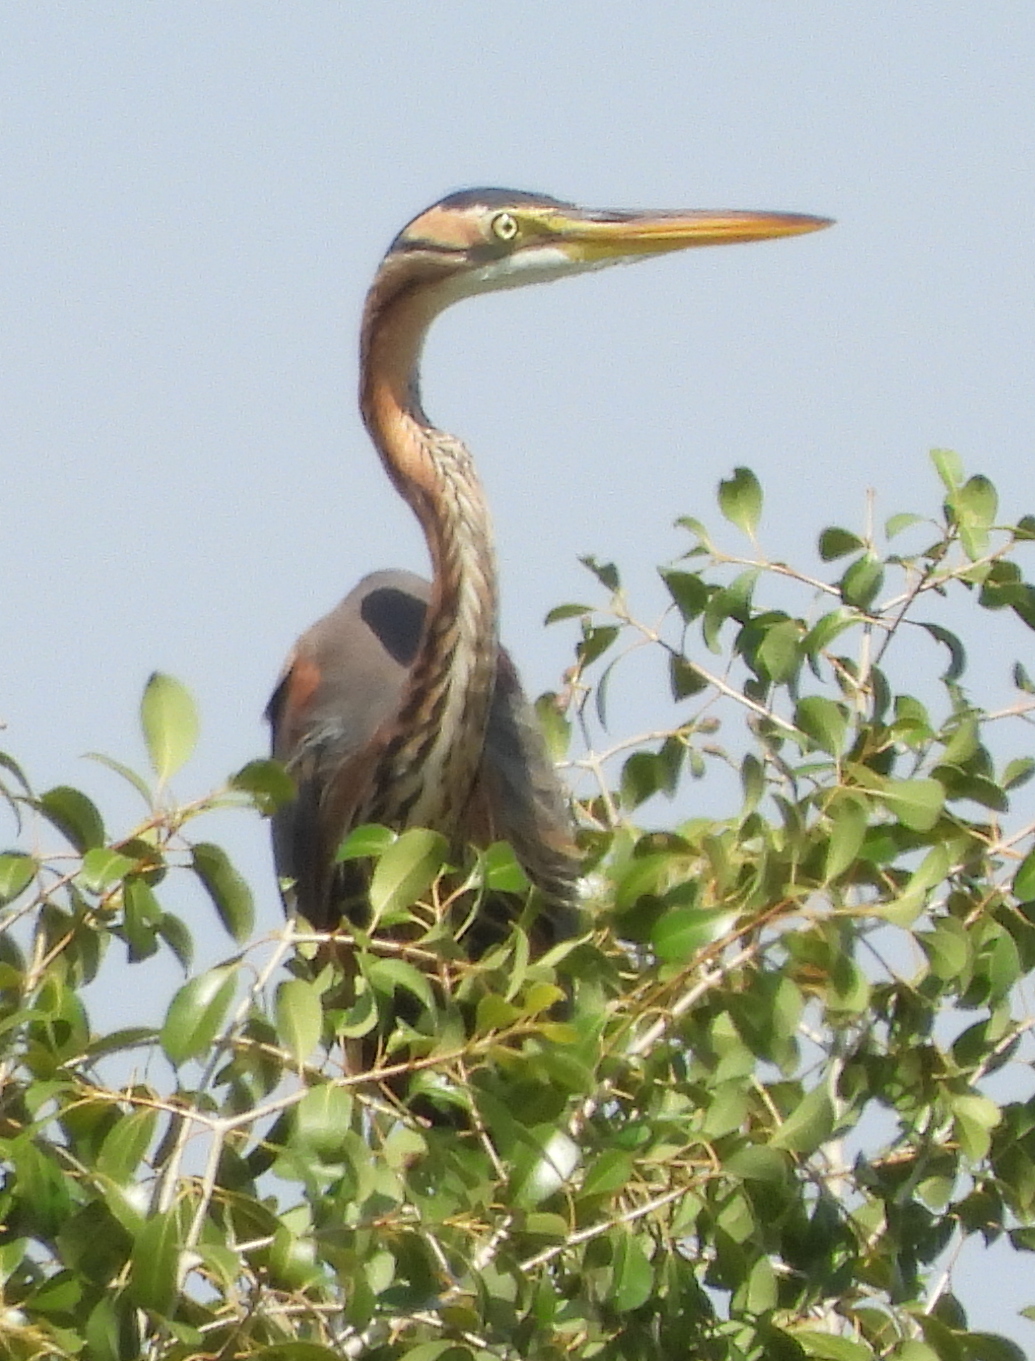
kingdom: Animalia
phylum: Chordata
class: Aves
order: Pelecaniformes
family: Ardeidae
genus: Ardea
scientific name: Ardea purpurea
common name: Purple heron
